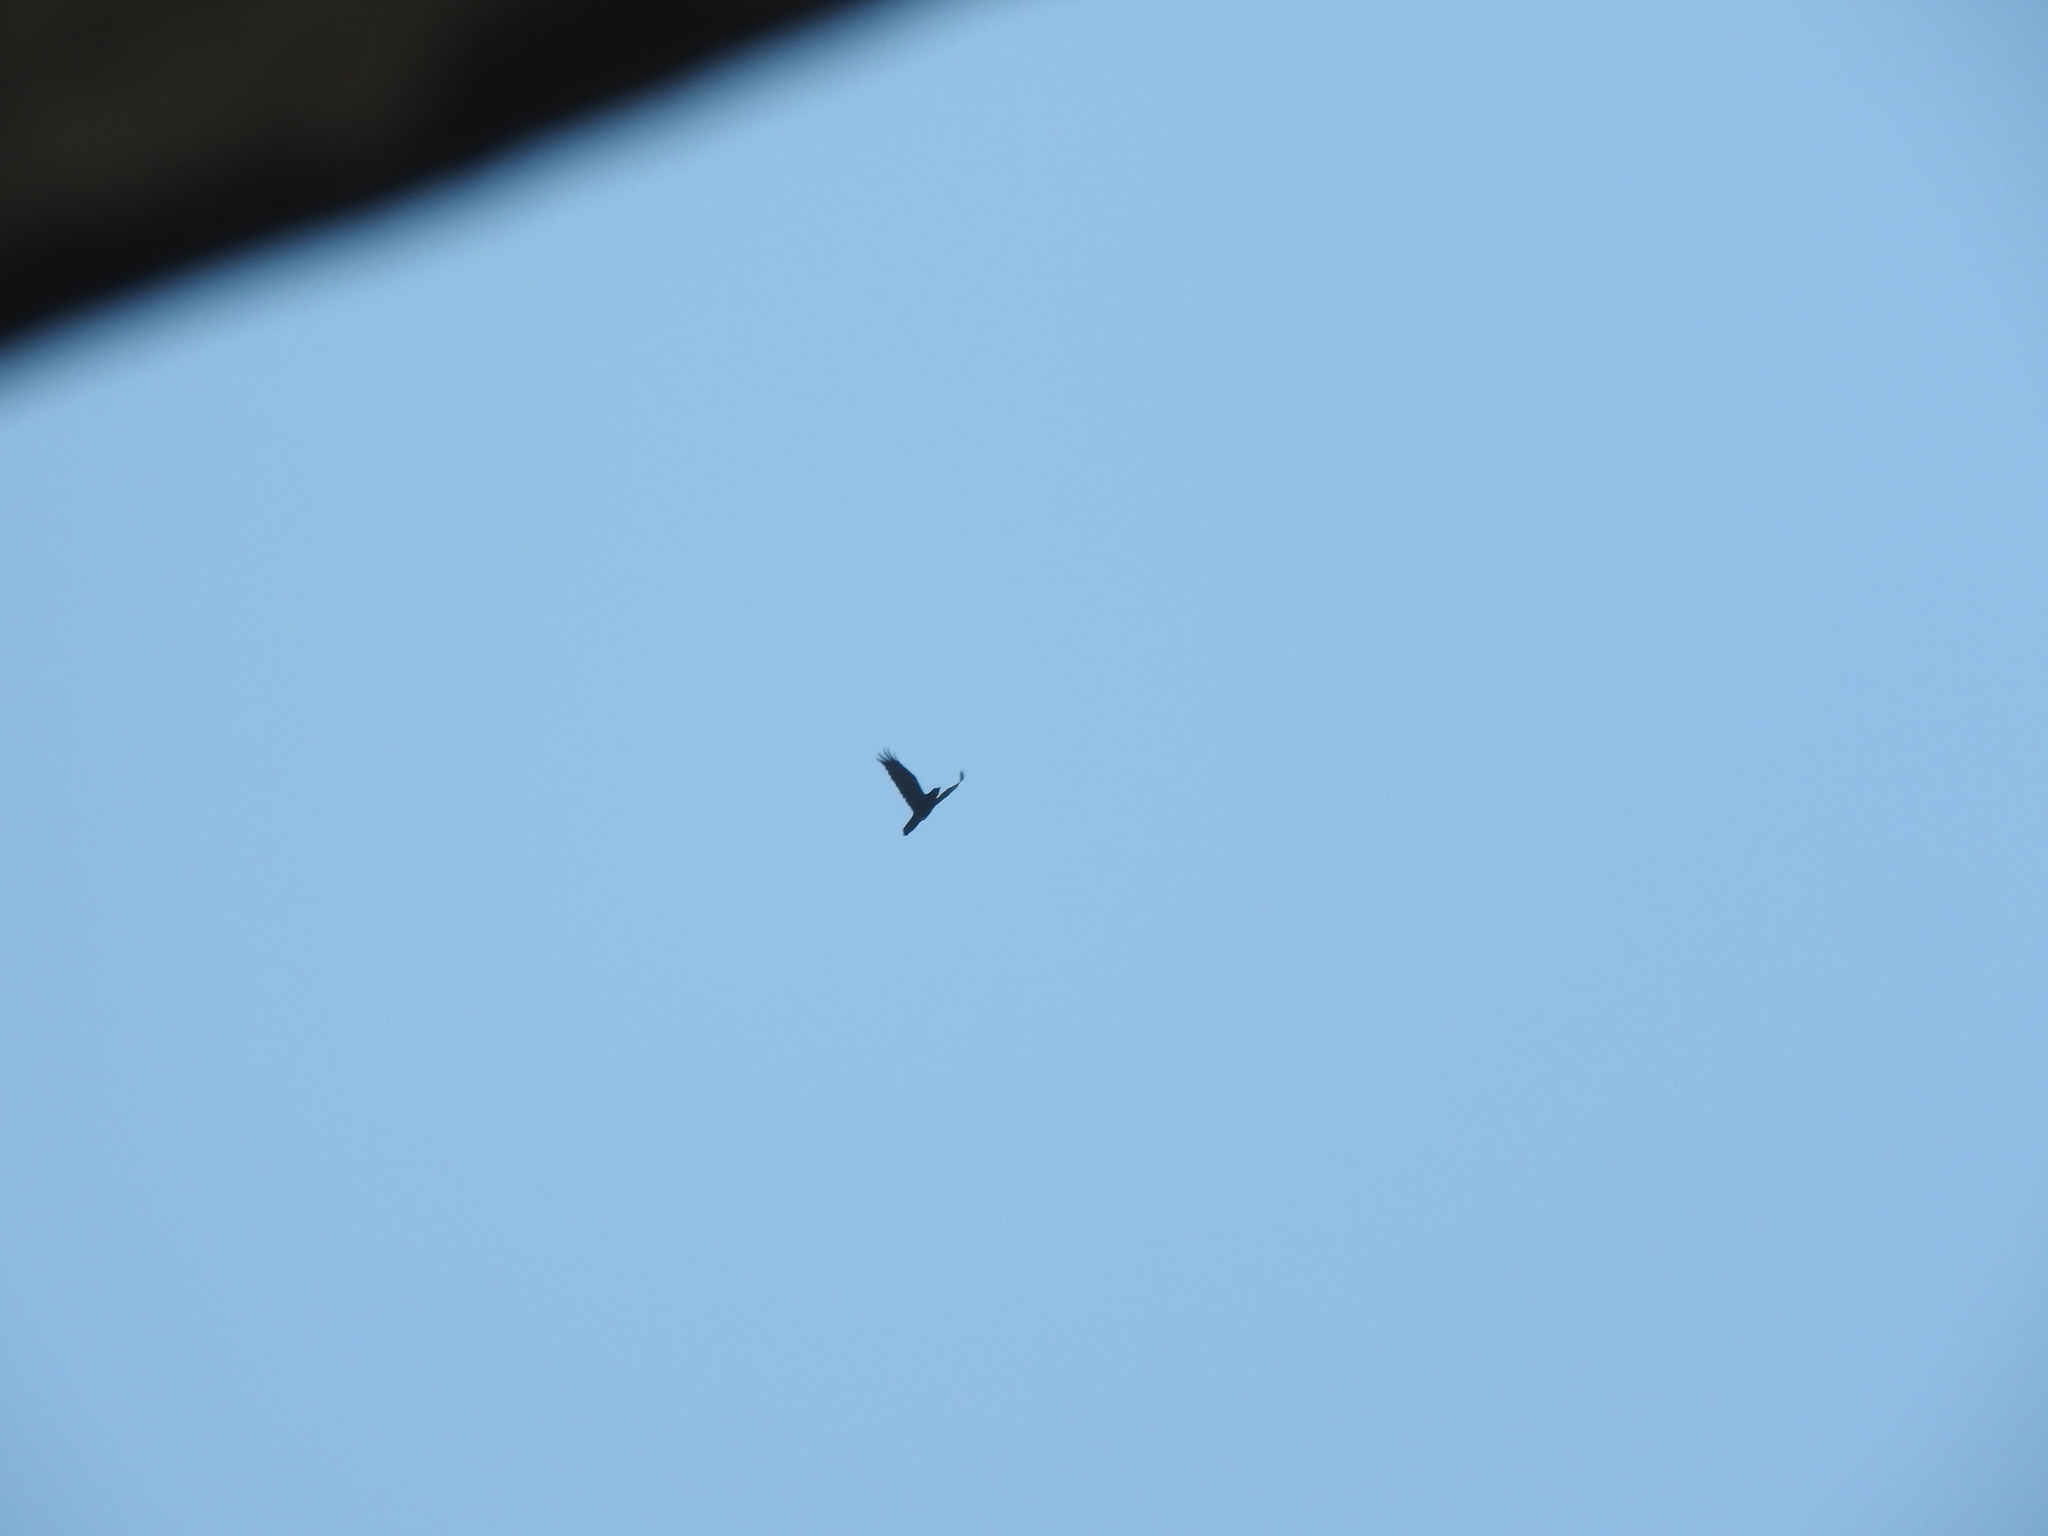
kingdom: Animalia
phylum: Chordata
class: Aves
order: Passeriformes
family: Corvidae
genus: Corvus
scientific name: Corvus corax
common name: Common raven
